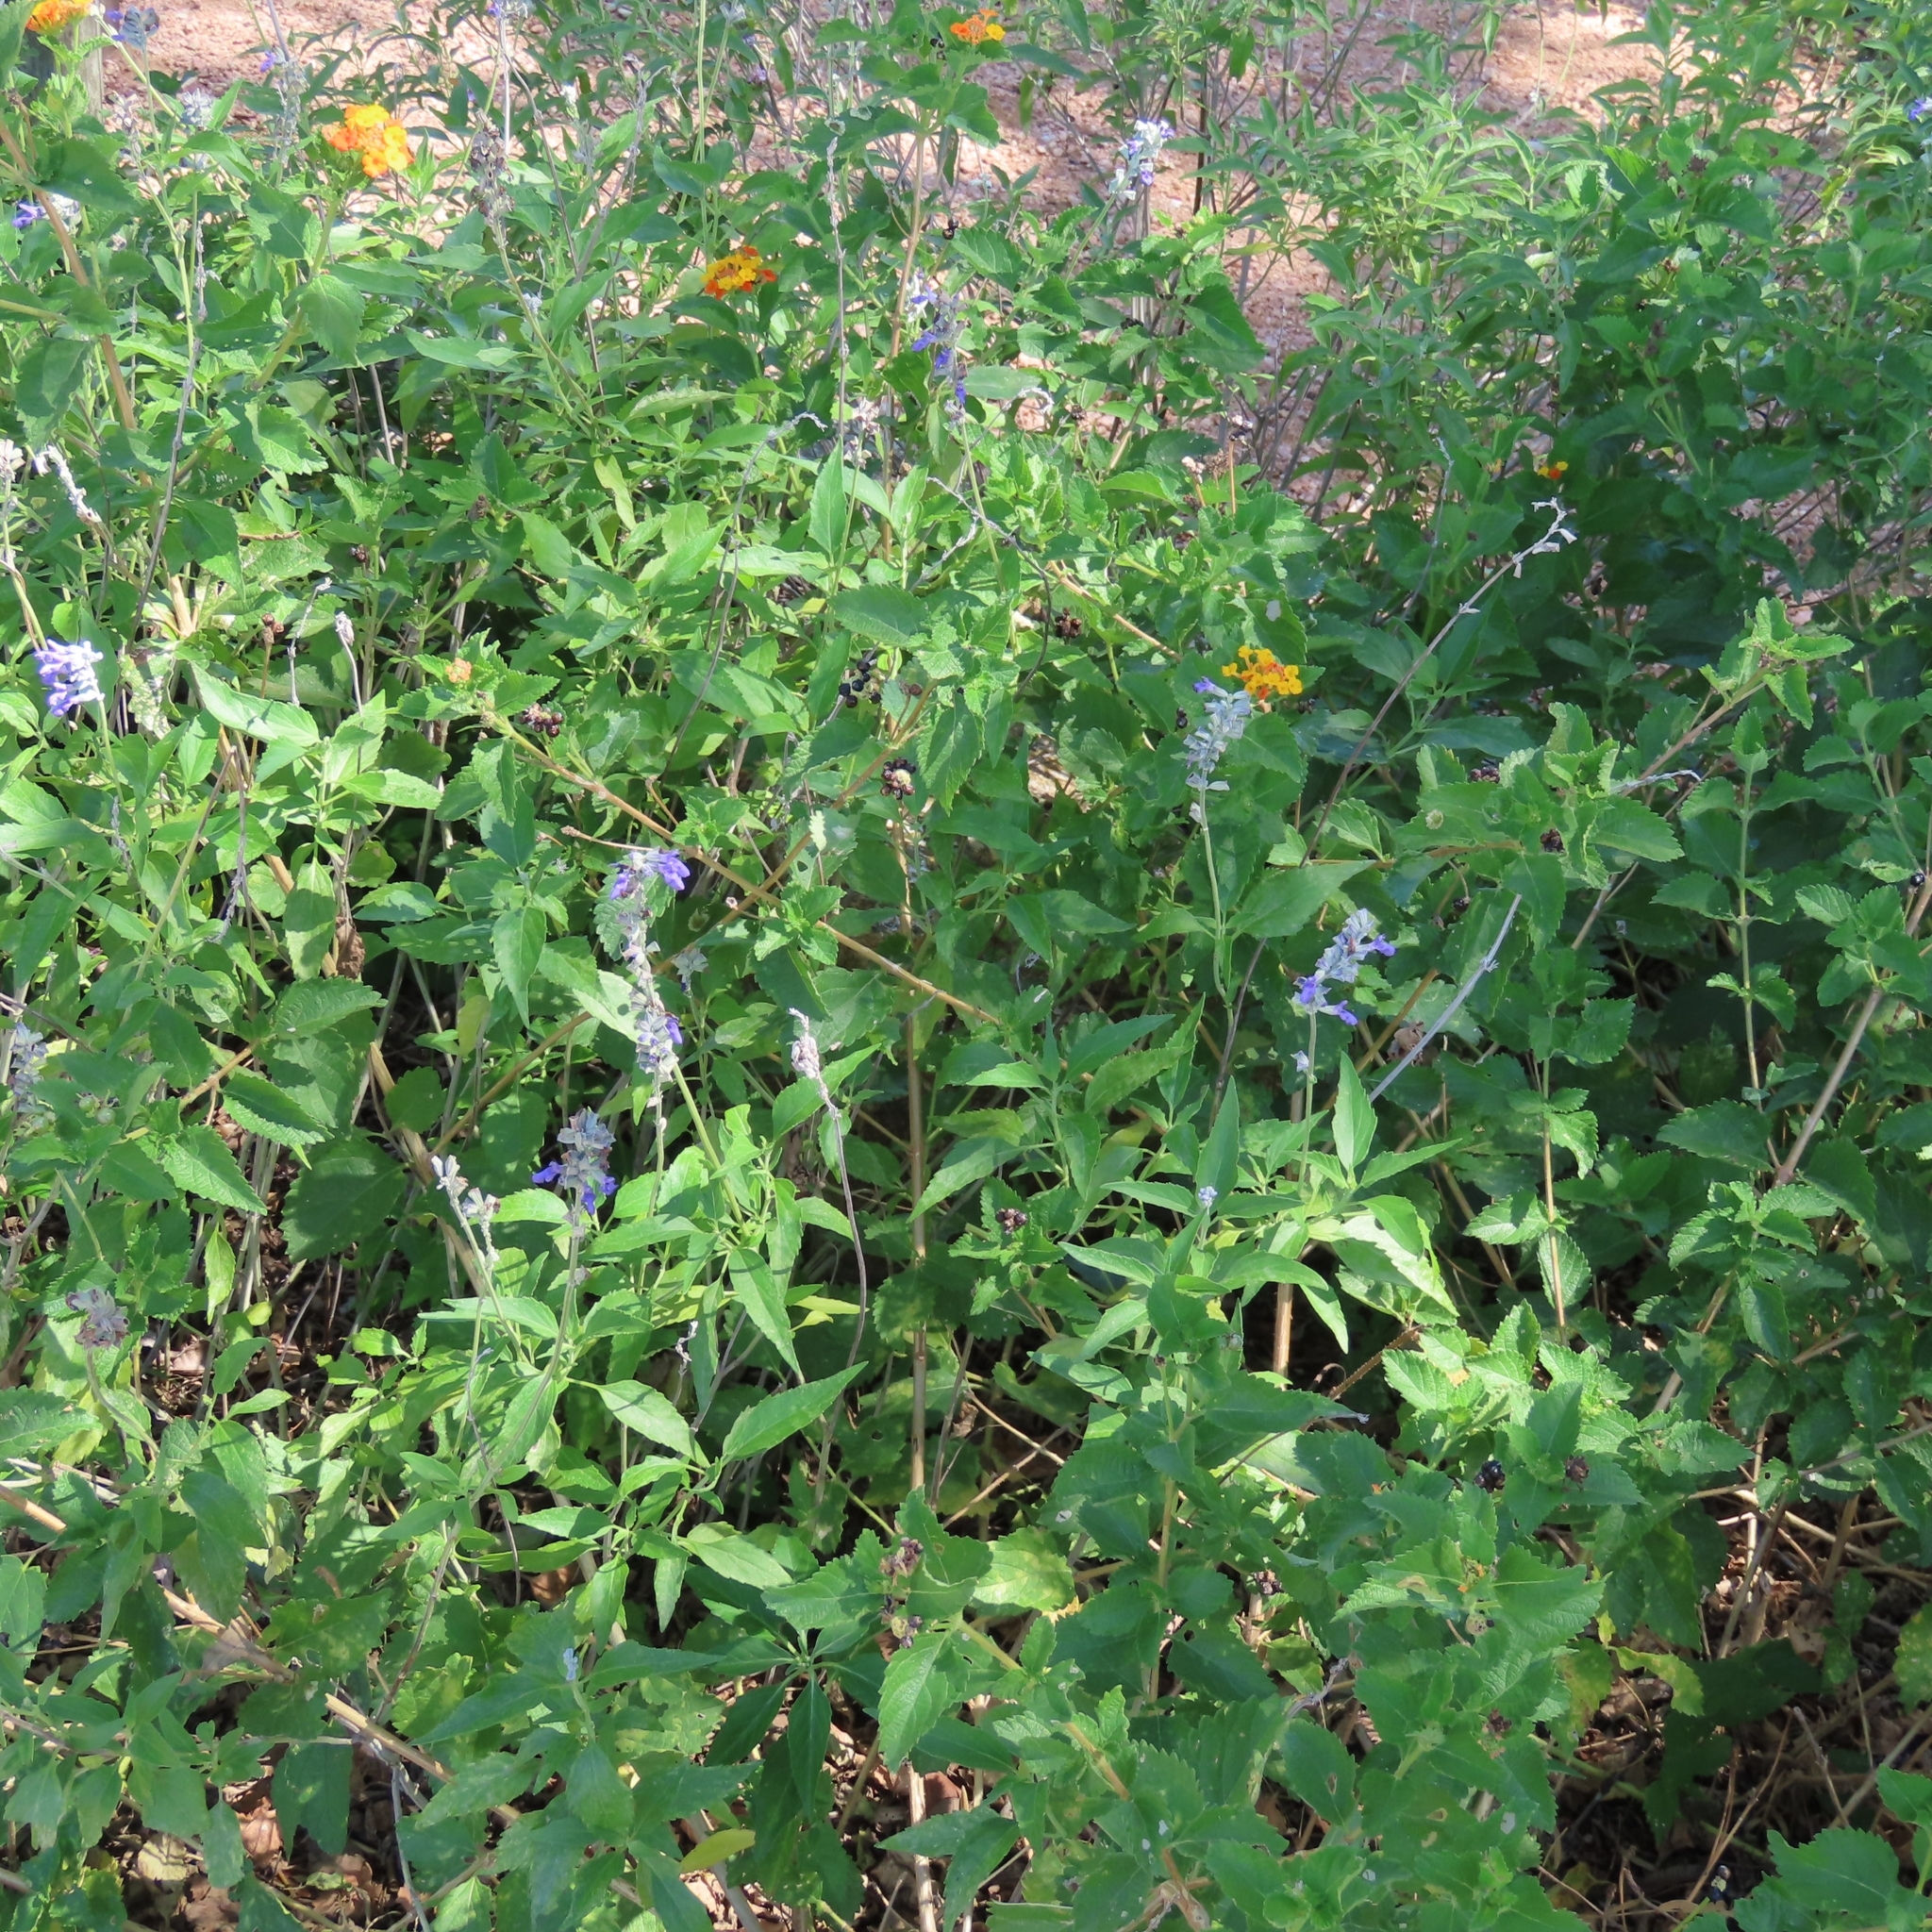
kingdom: Plantae
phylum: Tracheophyta
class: Magnoliopsida
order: Lamiales
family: Lamiaceae
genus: Salvia
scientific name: Salvia farinacea
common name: Mealy sage
